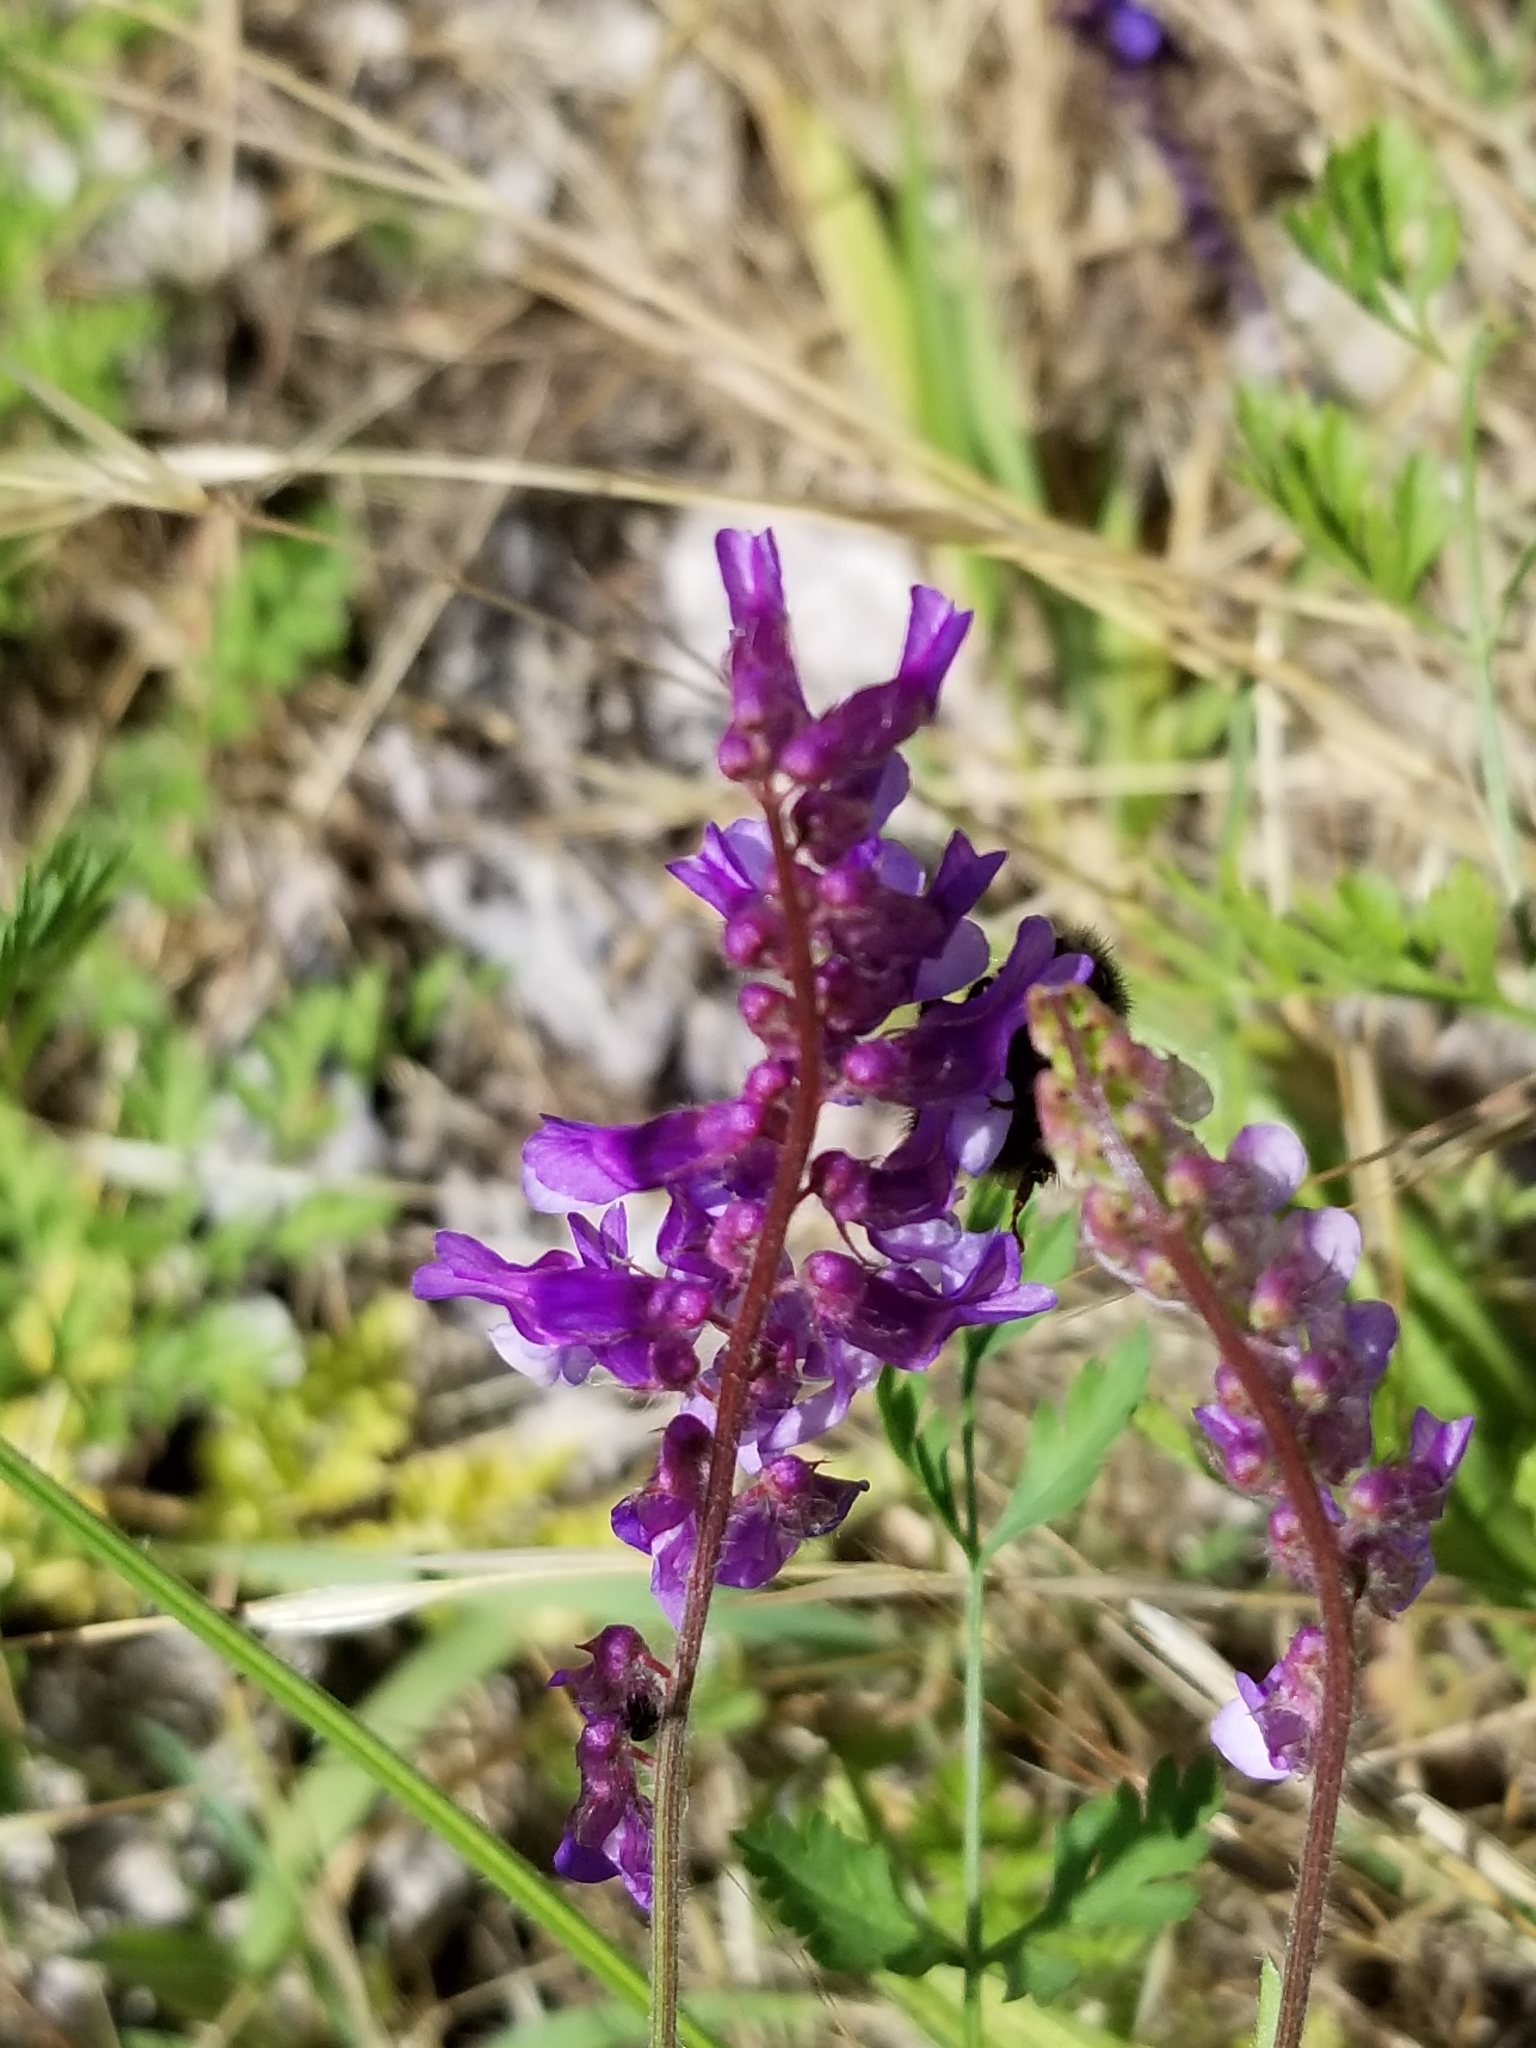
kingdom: Plantae
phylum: Tracheophyta
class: Magnoliopsida
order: Fabales
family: Fabaceae
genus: Vicia
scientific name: Vicia villosa
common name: Fodder vetch
